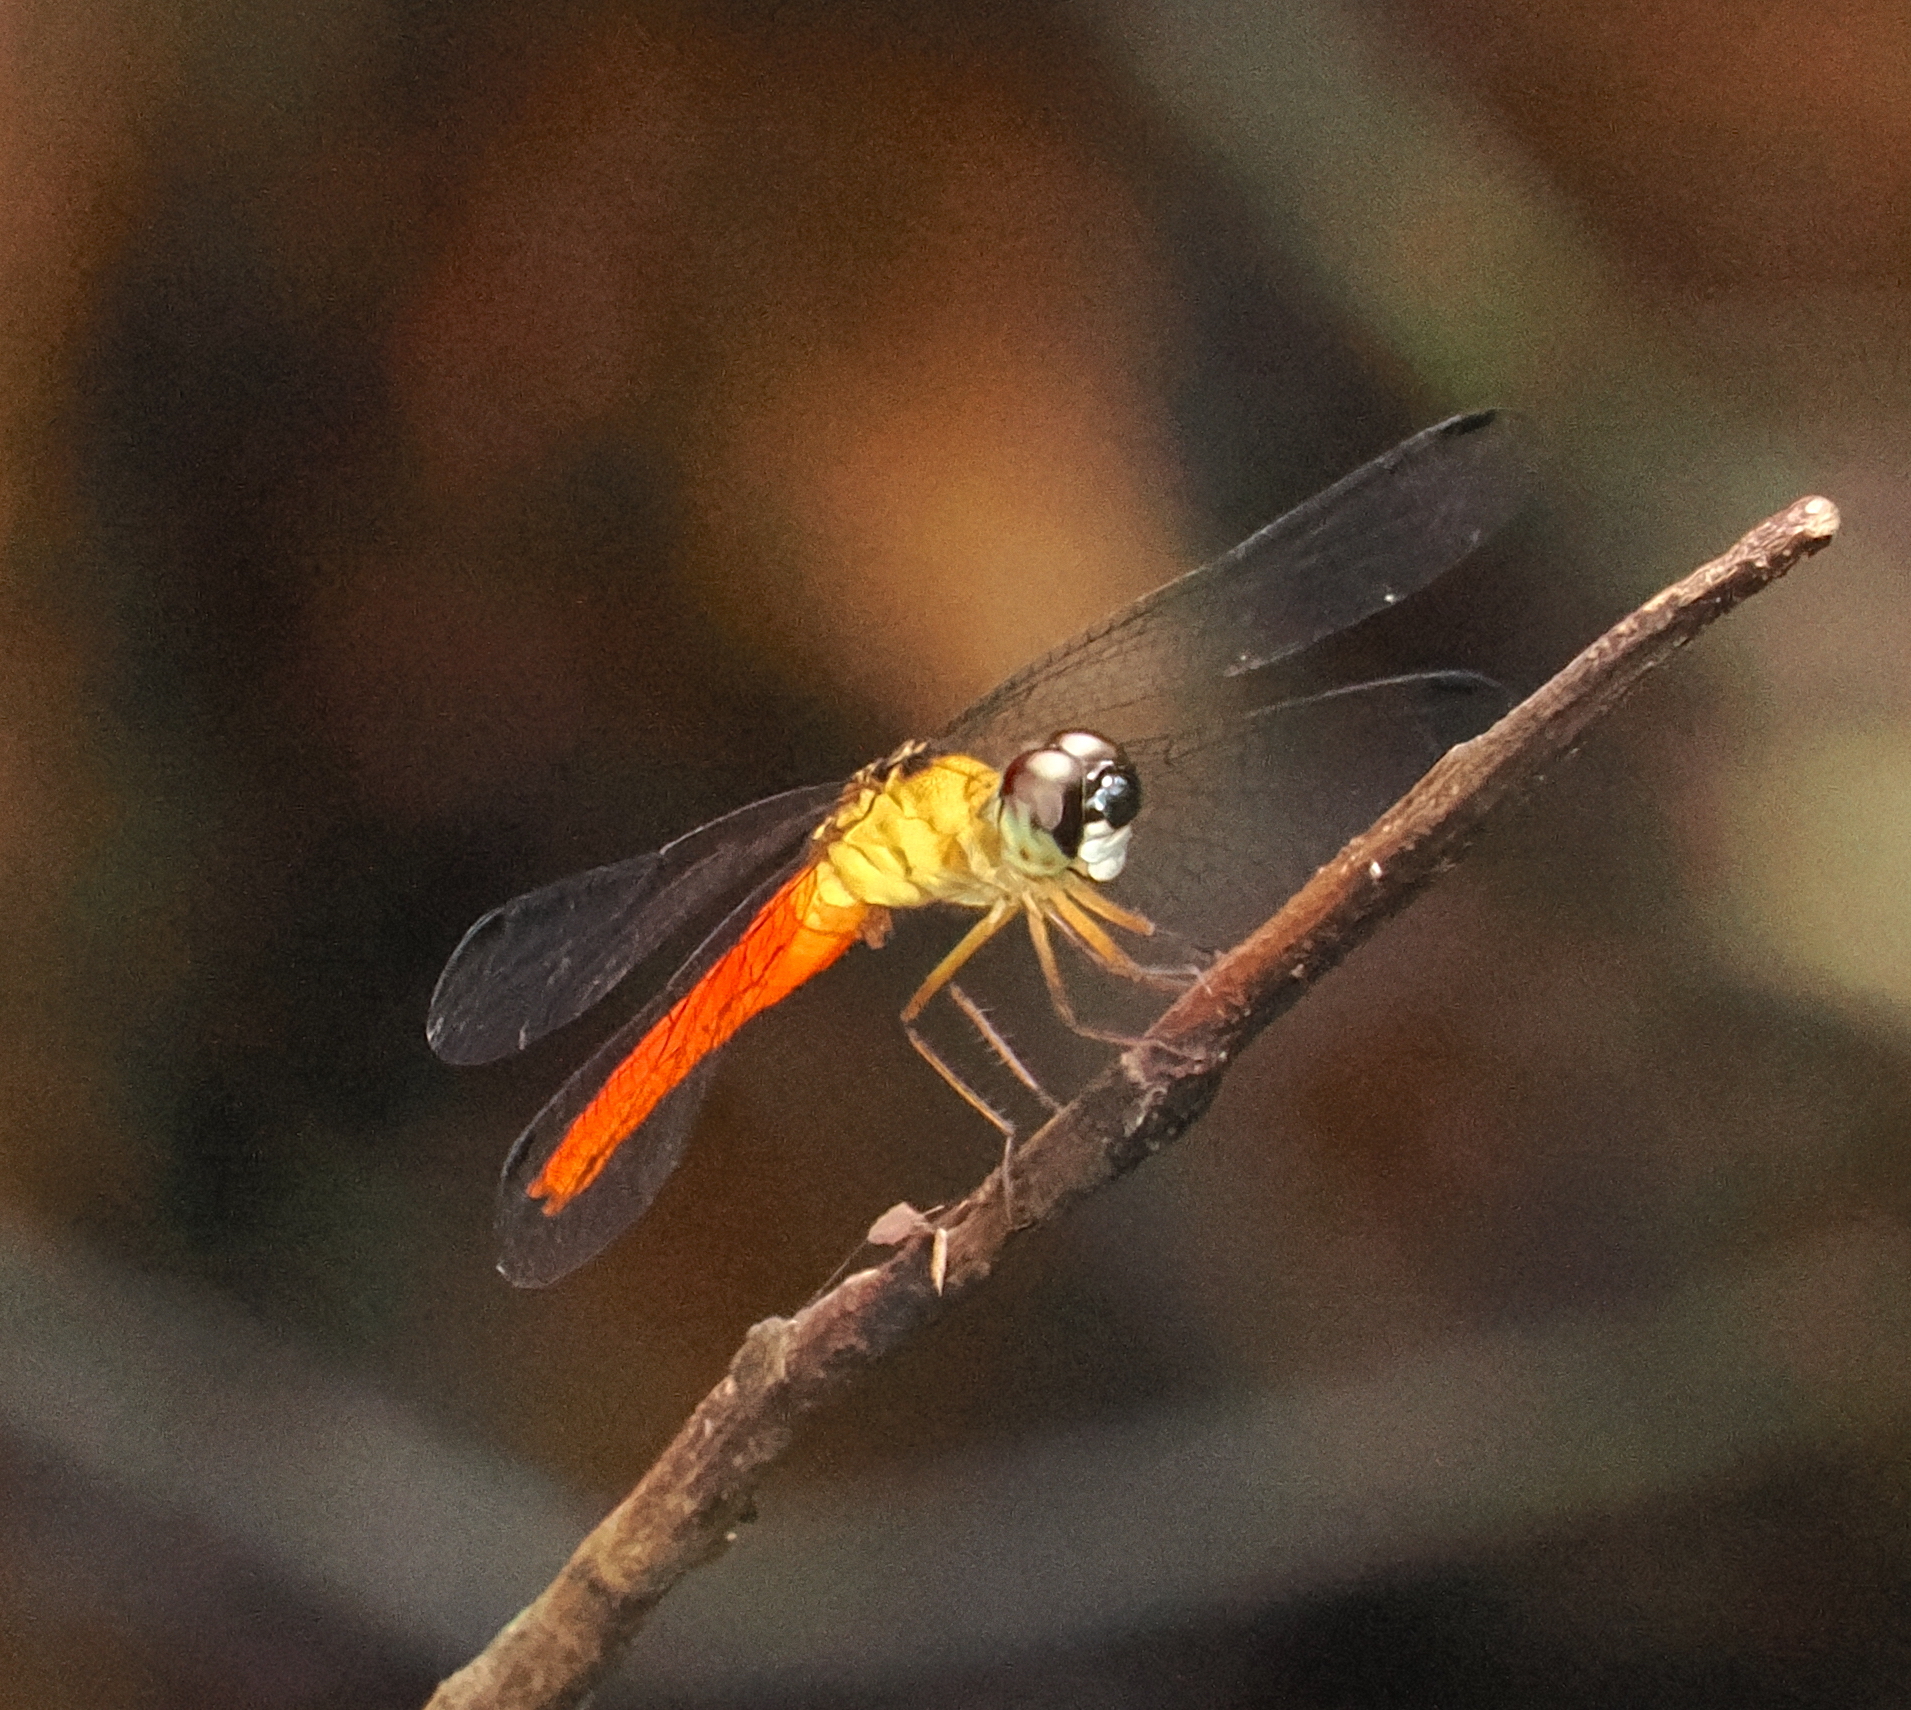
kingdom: Animalia
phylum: Arthropoda
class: Insecta
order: Odonata
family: Libellulidae
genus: Orchithemis
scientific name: Orchithemis pulcherrima
